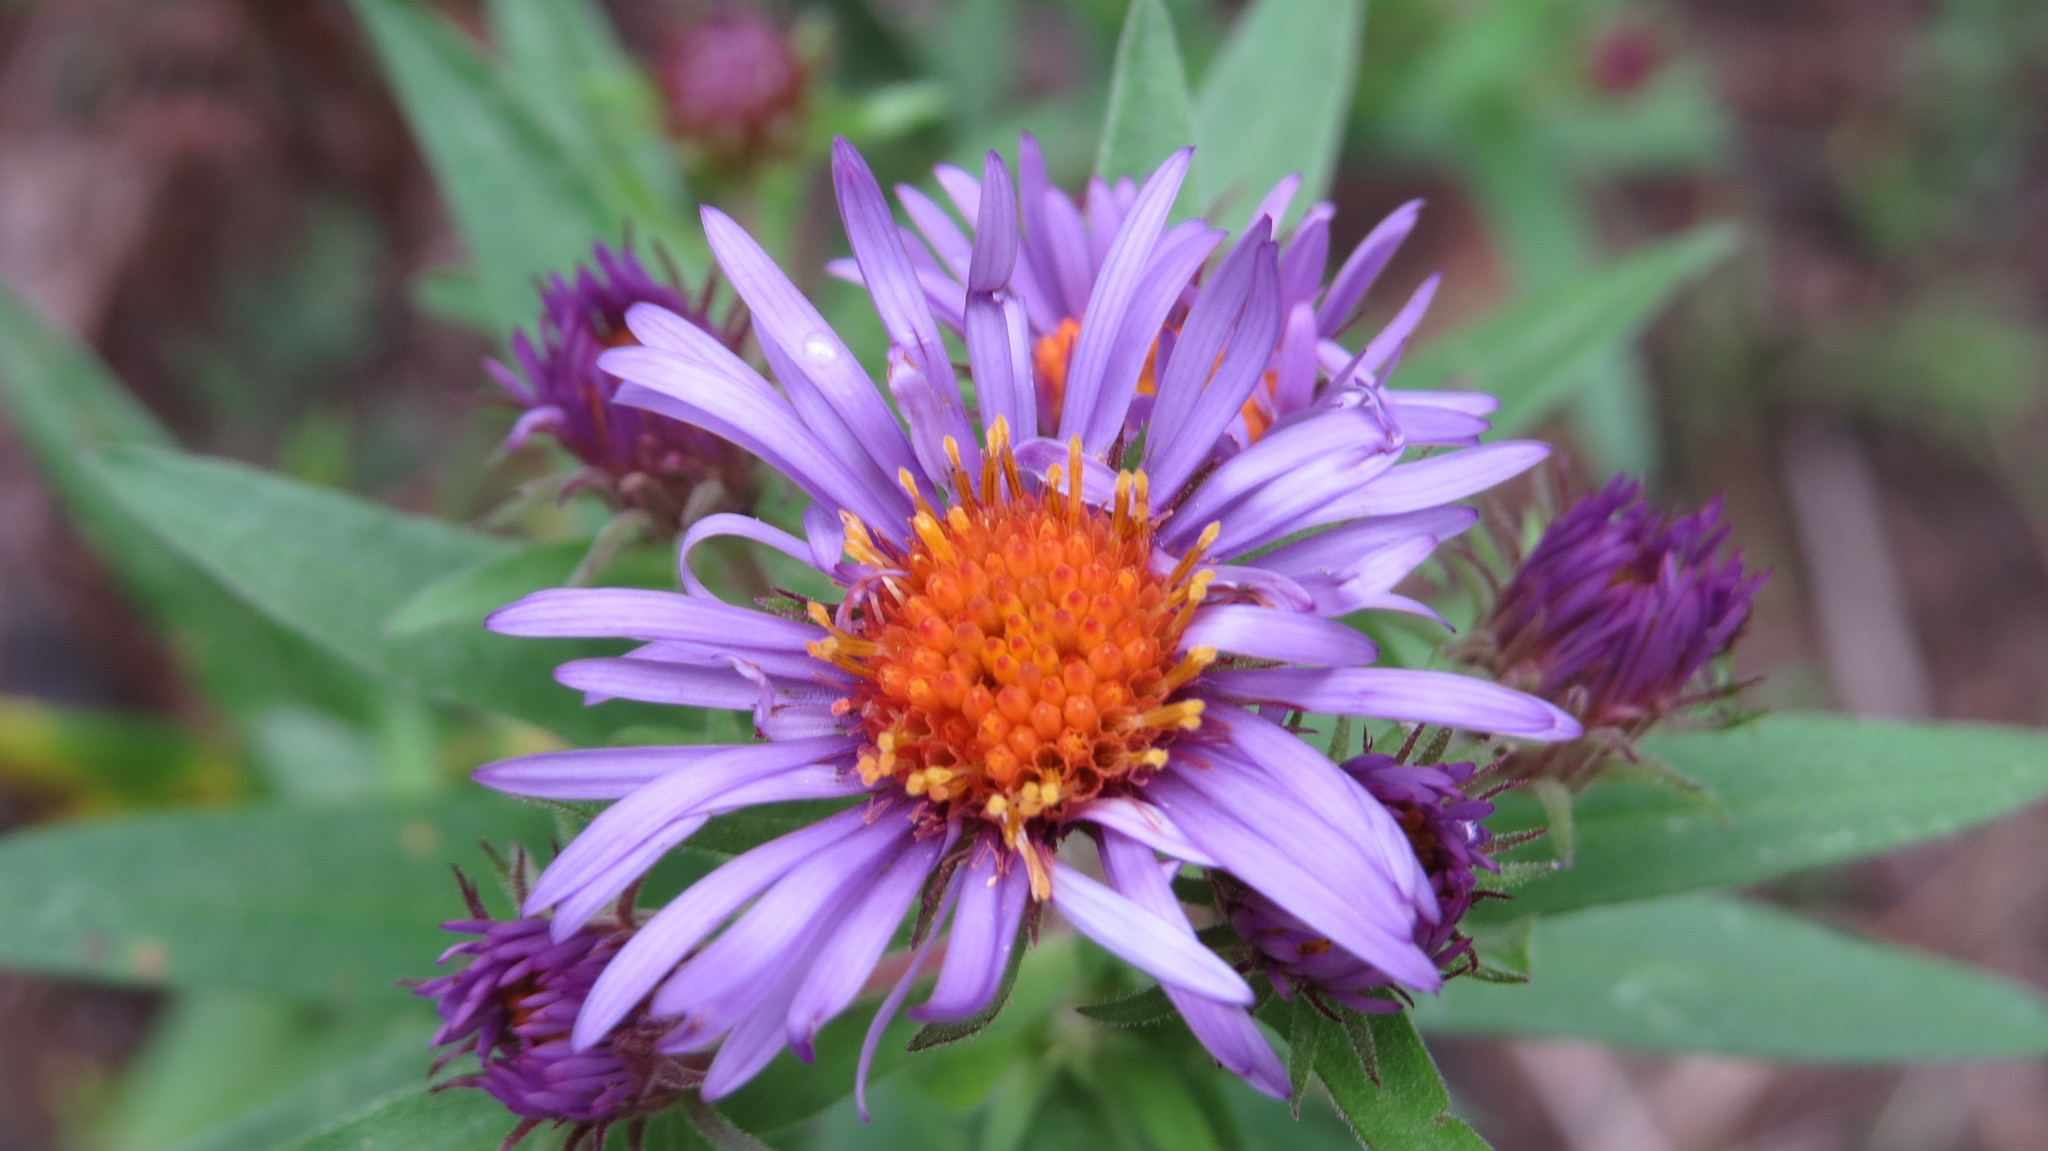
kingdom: Plantae
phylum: Tracheophyta
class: Magnoliopsida
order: Asterales
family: Asteraceae
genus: Symphyotrichum
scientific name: Symphyotrichum novae-angliae
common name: Michaelmas daisy
